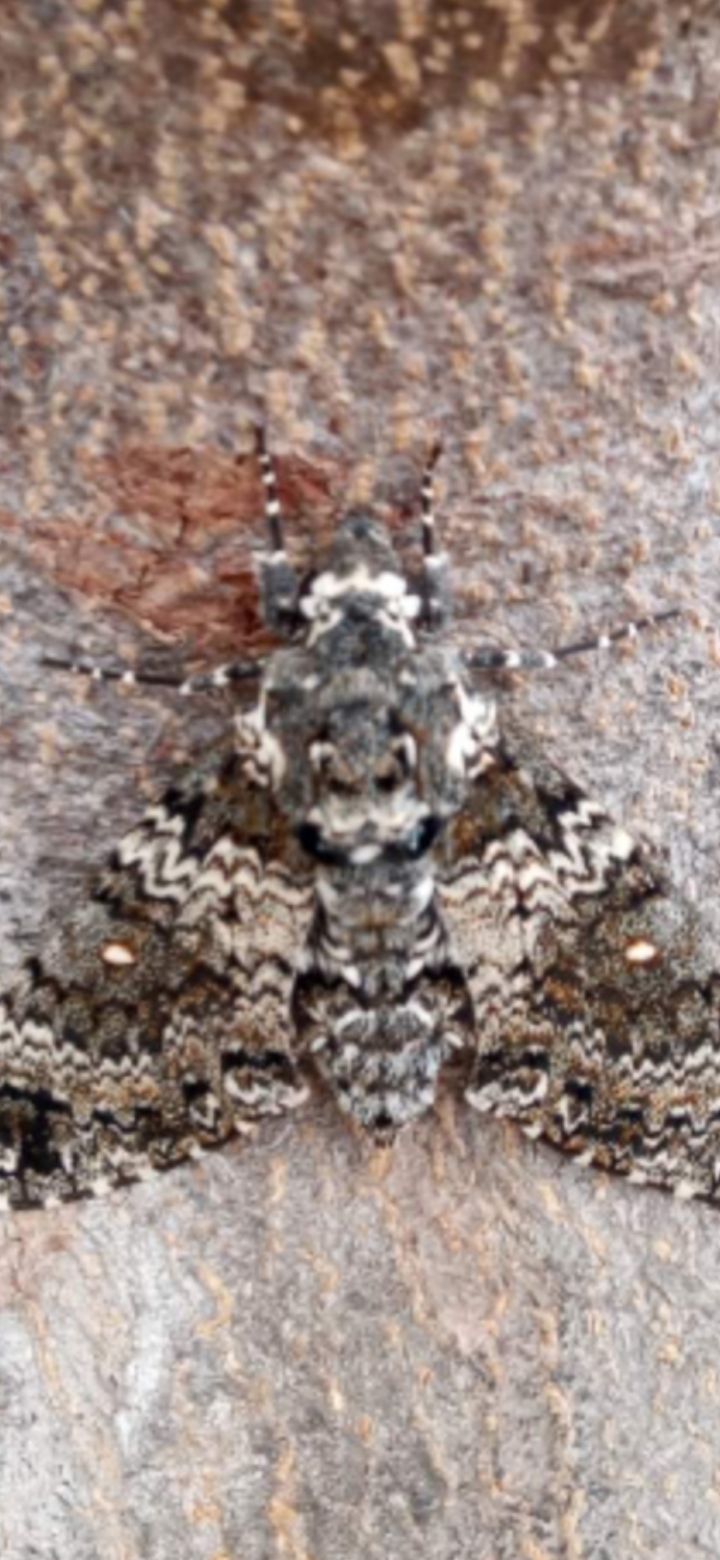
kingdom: Animalia
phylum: Arthropoda
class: Insecta
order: Lepidoptera
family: Sphingidae
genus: Manduca
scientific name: Manduca afflicta
